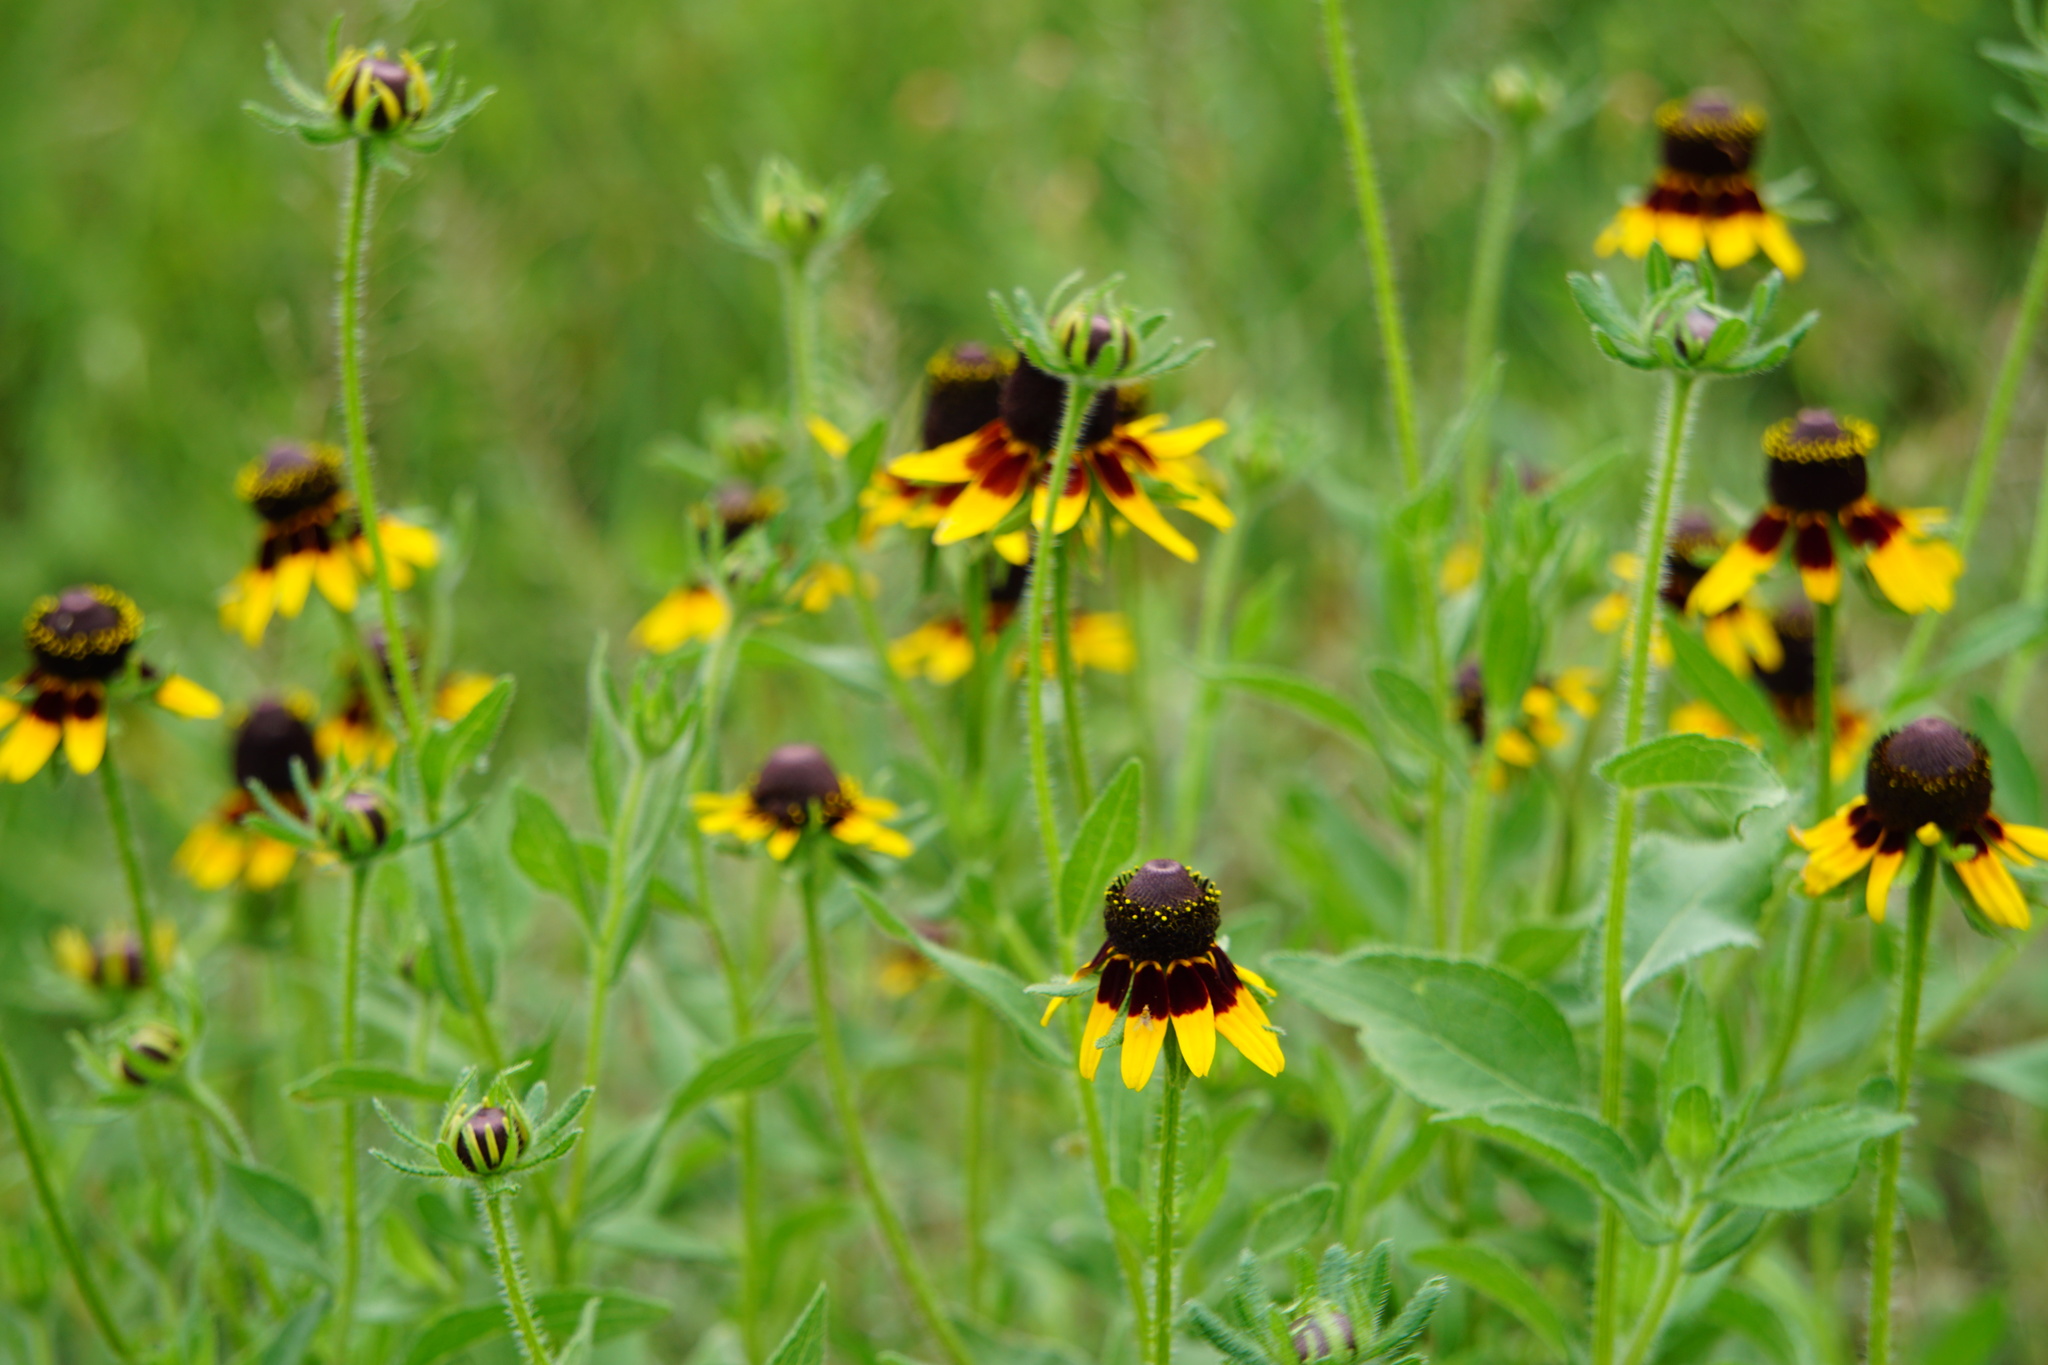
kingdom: Plantae
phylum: Tracheophyta
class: Magnoliopsida
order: Asterales
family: Asteraceae
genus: Rudbeckia
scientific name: Rudbeckia hirta
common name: Black-eyed-susan
